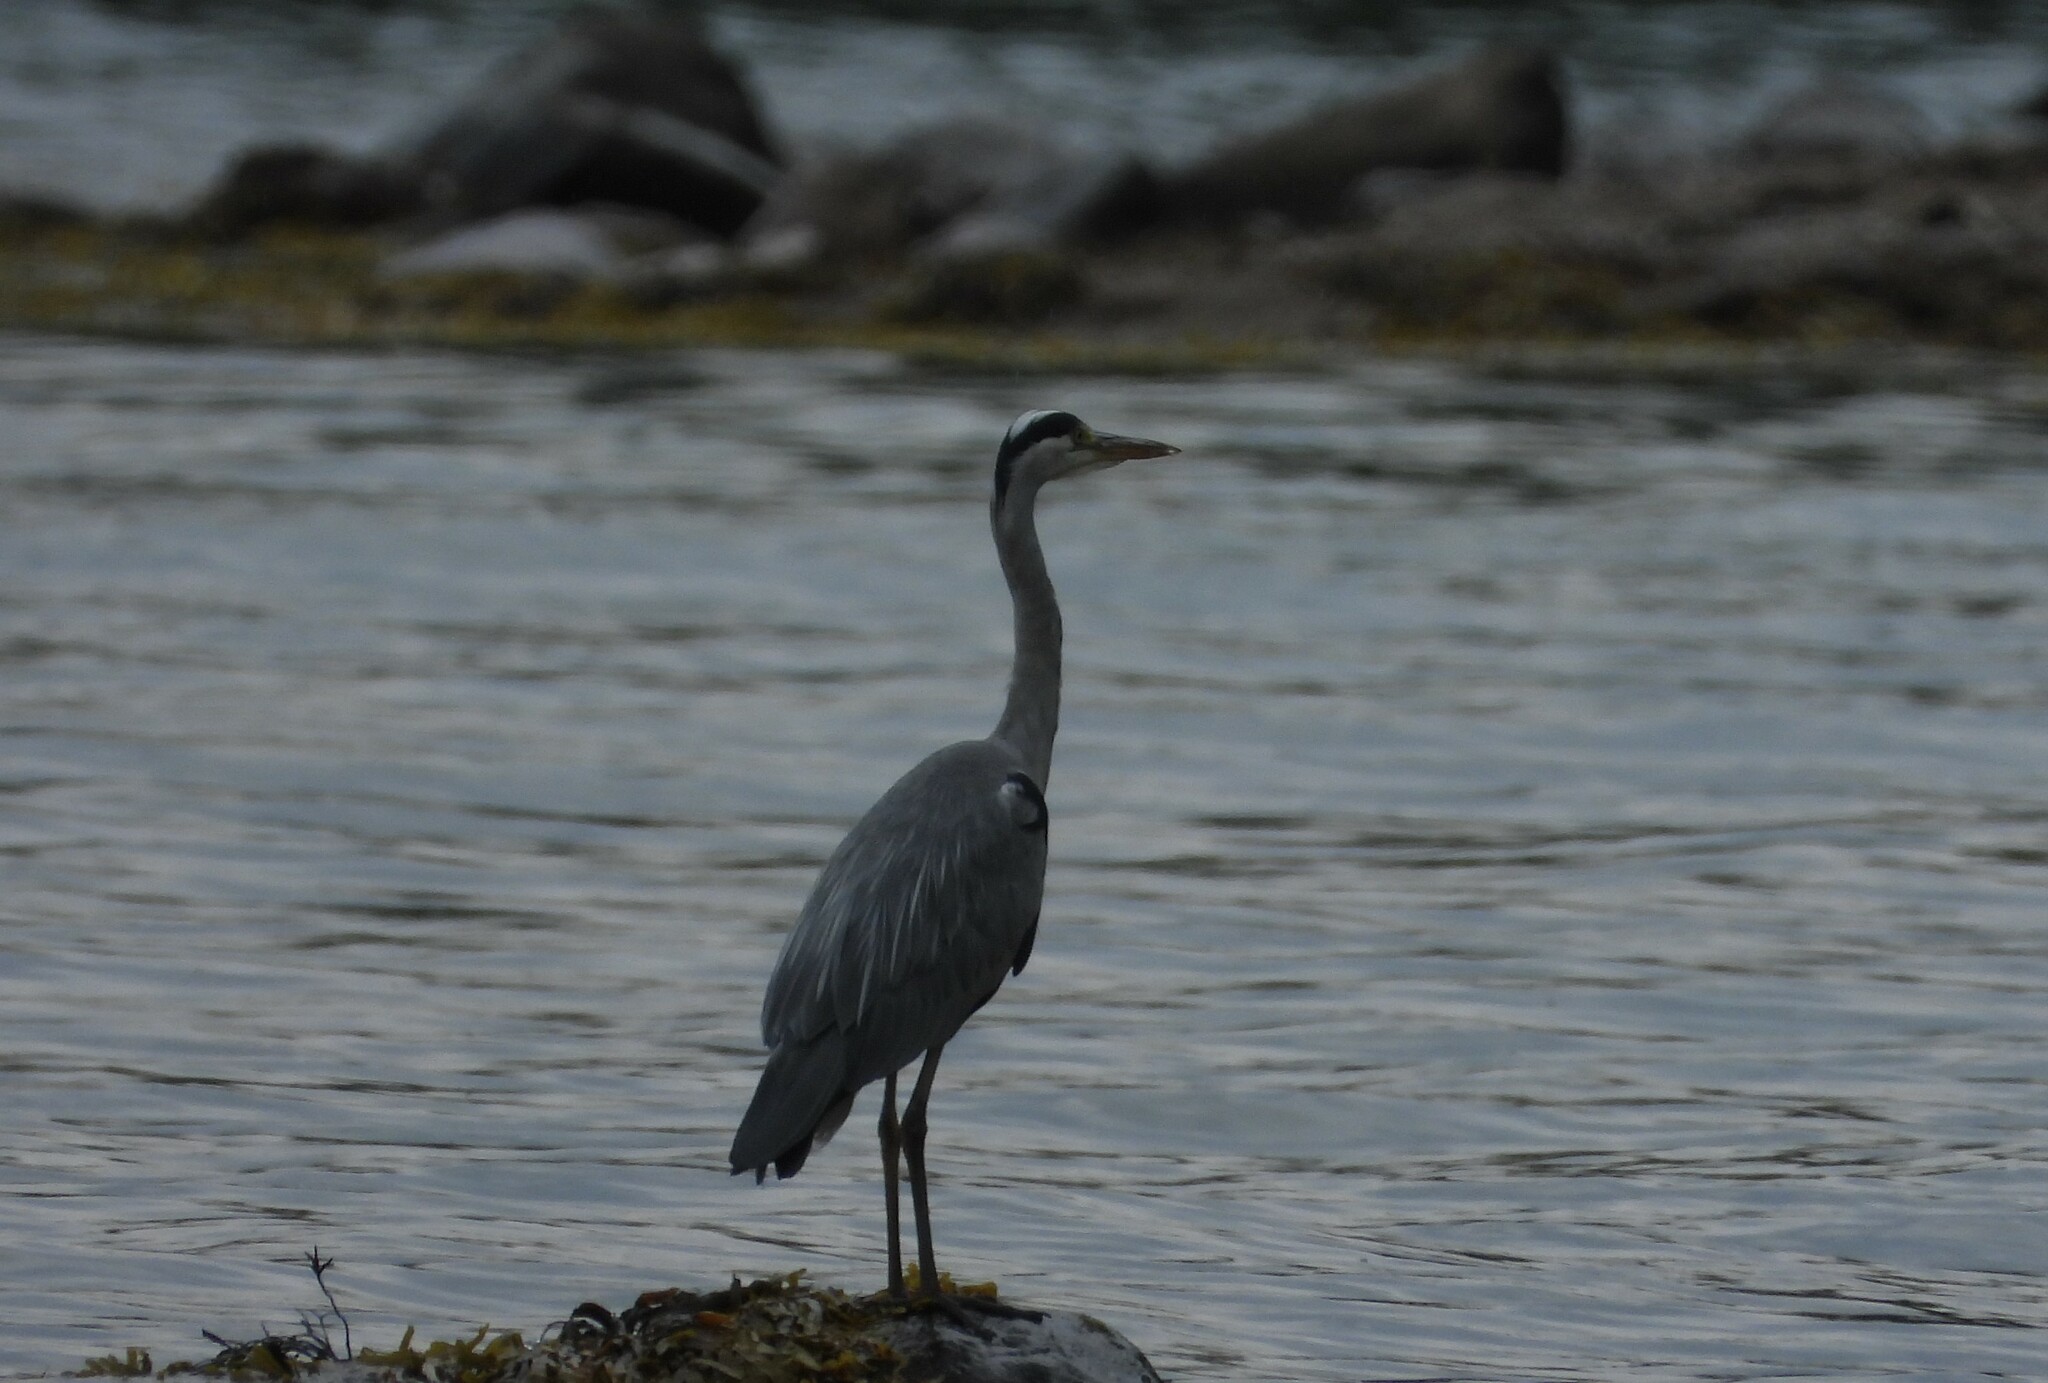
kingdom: Animalia
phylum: Chordata
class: Aves
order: Pelecaniformes
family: Ardeidae
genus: Ardea
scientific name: Ardea cinerea
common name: Grey heron
